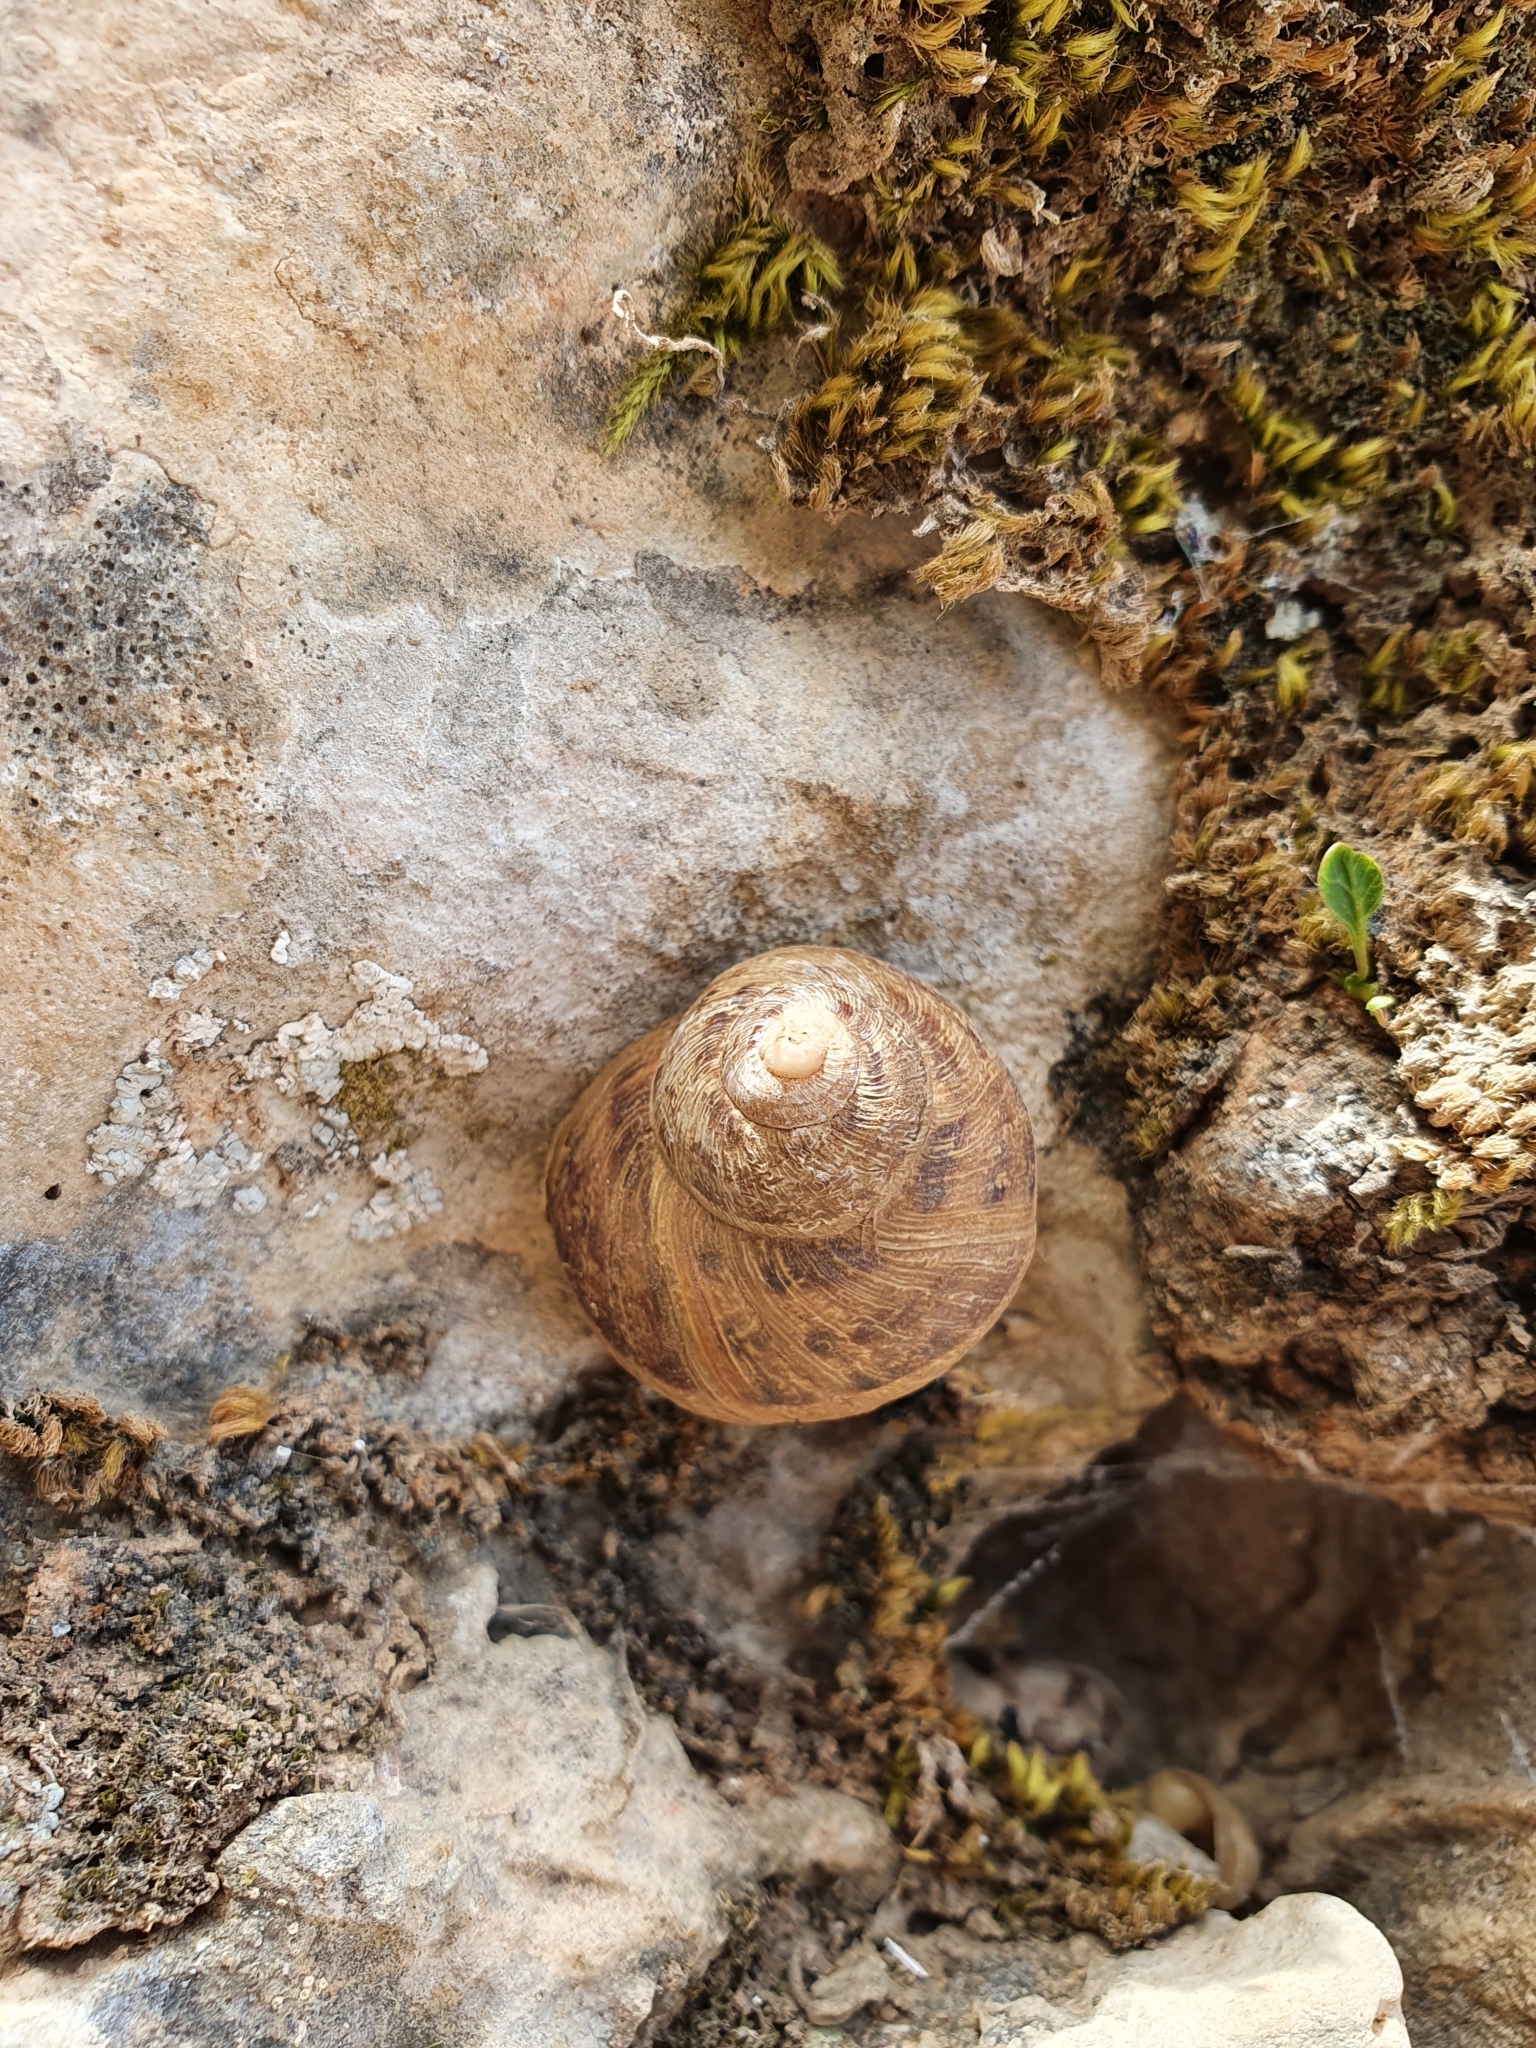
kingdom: Animalia
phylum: Mollusca
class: Gastropoda
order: Stylommatophora
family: Helicidae
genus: Cornu
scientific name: Cornu aspersum
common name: Brown garden snail
